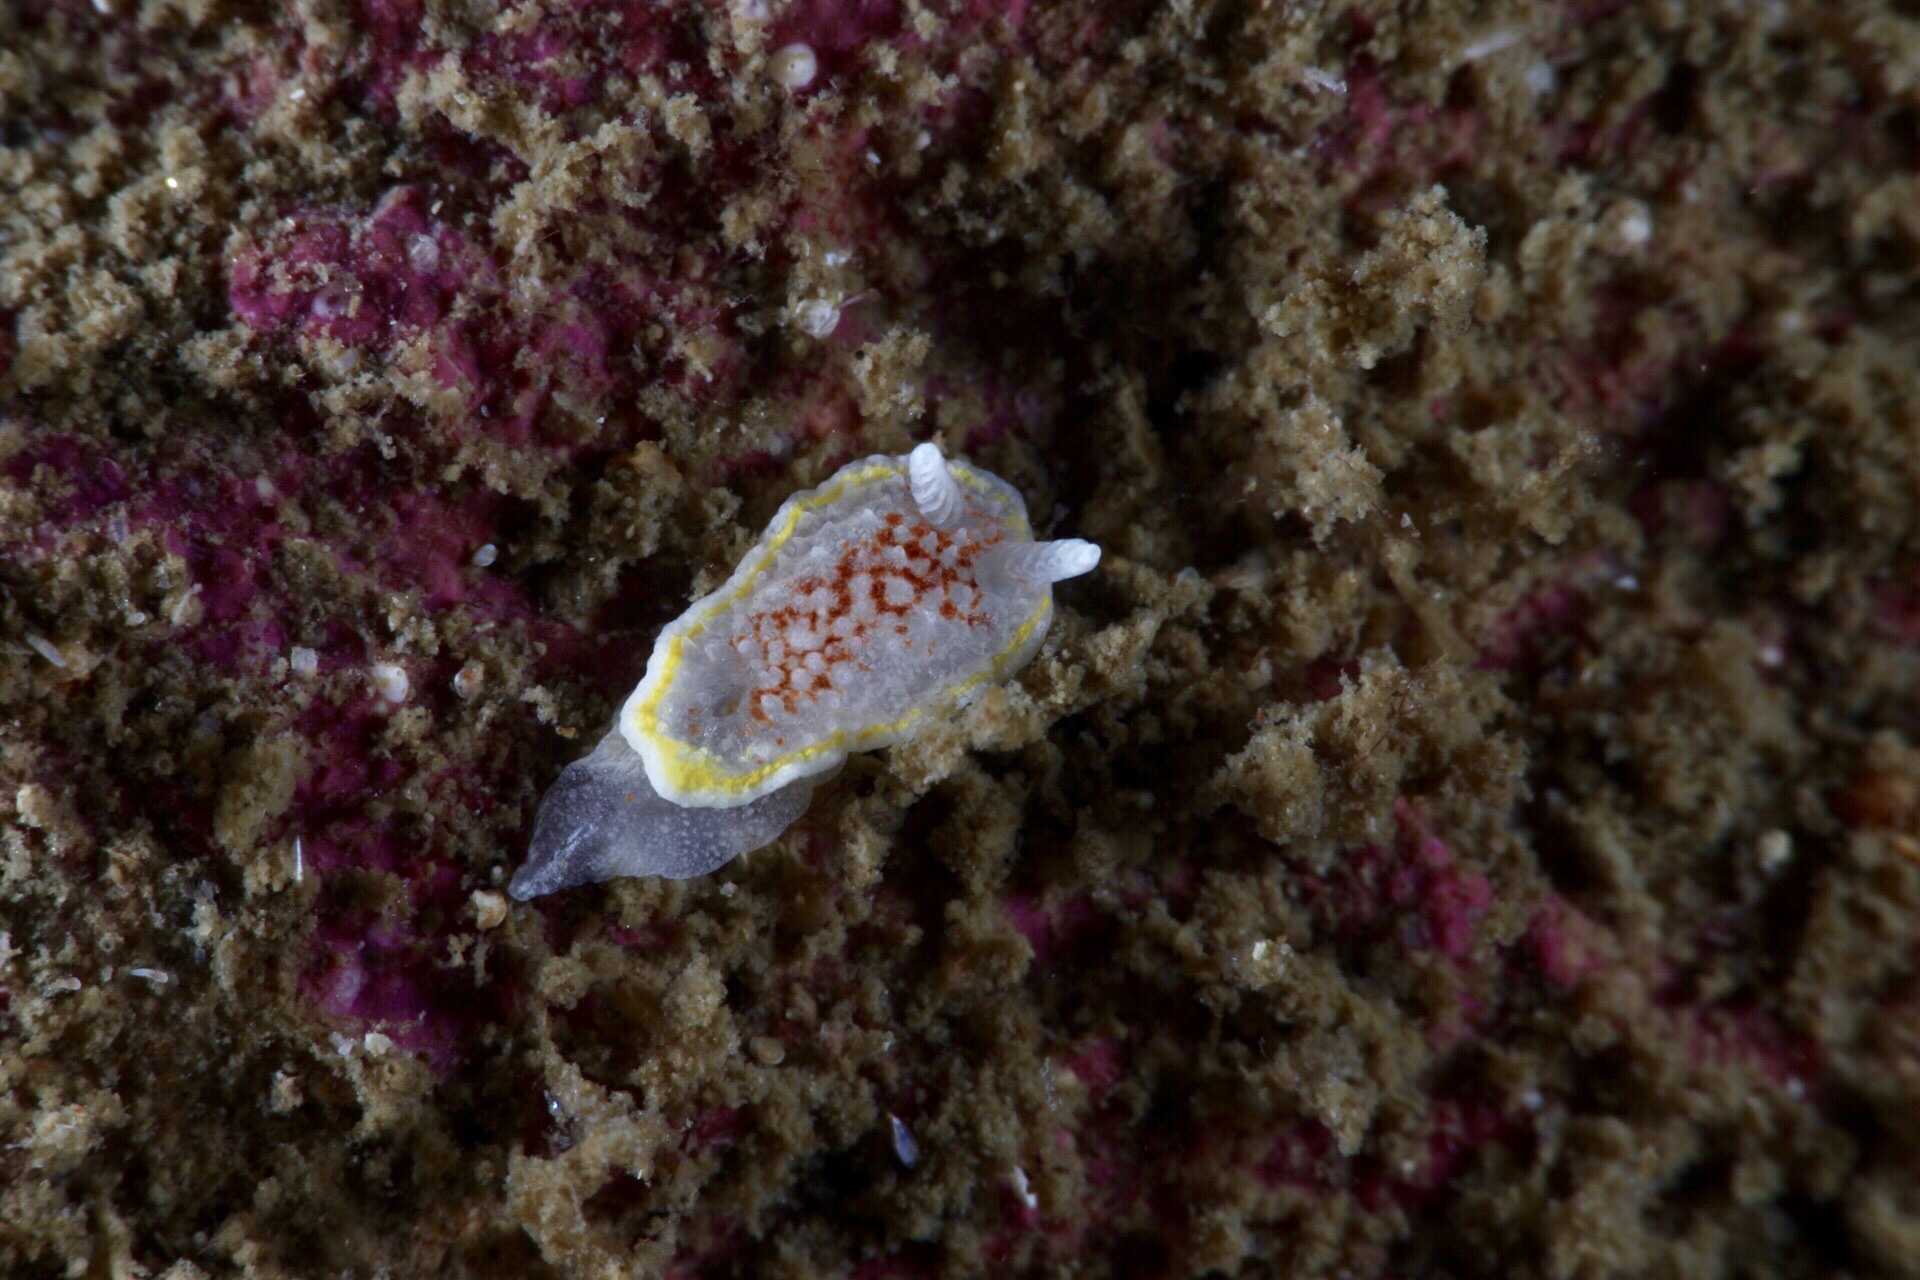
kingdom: Animalia
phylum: Mollusca
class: Gastropoda
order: Nudibranchia
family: Calycidorididae
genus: Diaphorodoris
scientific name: Diaphorodoris luteocincta
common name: Fried egg nudibranch
